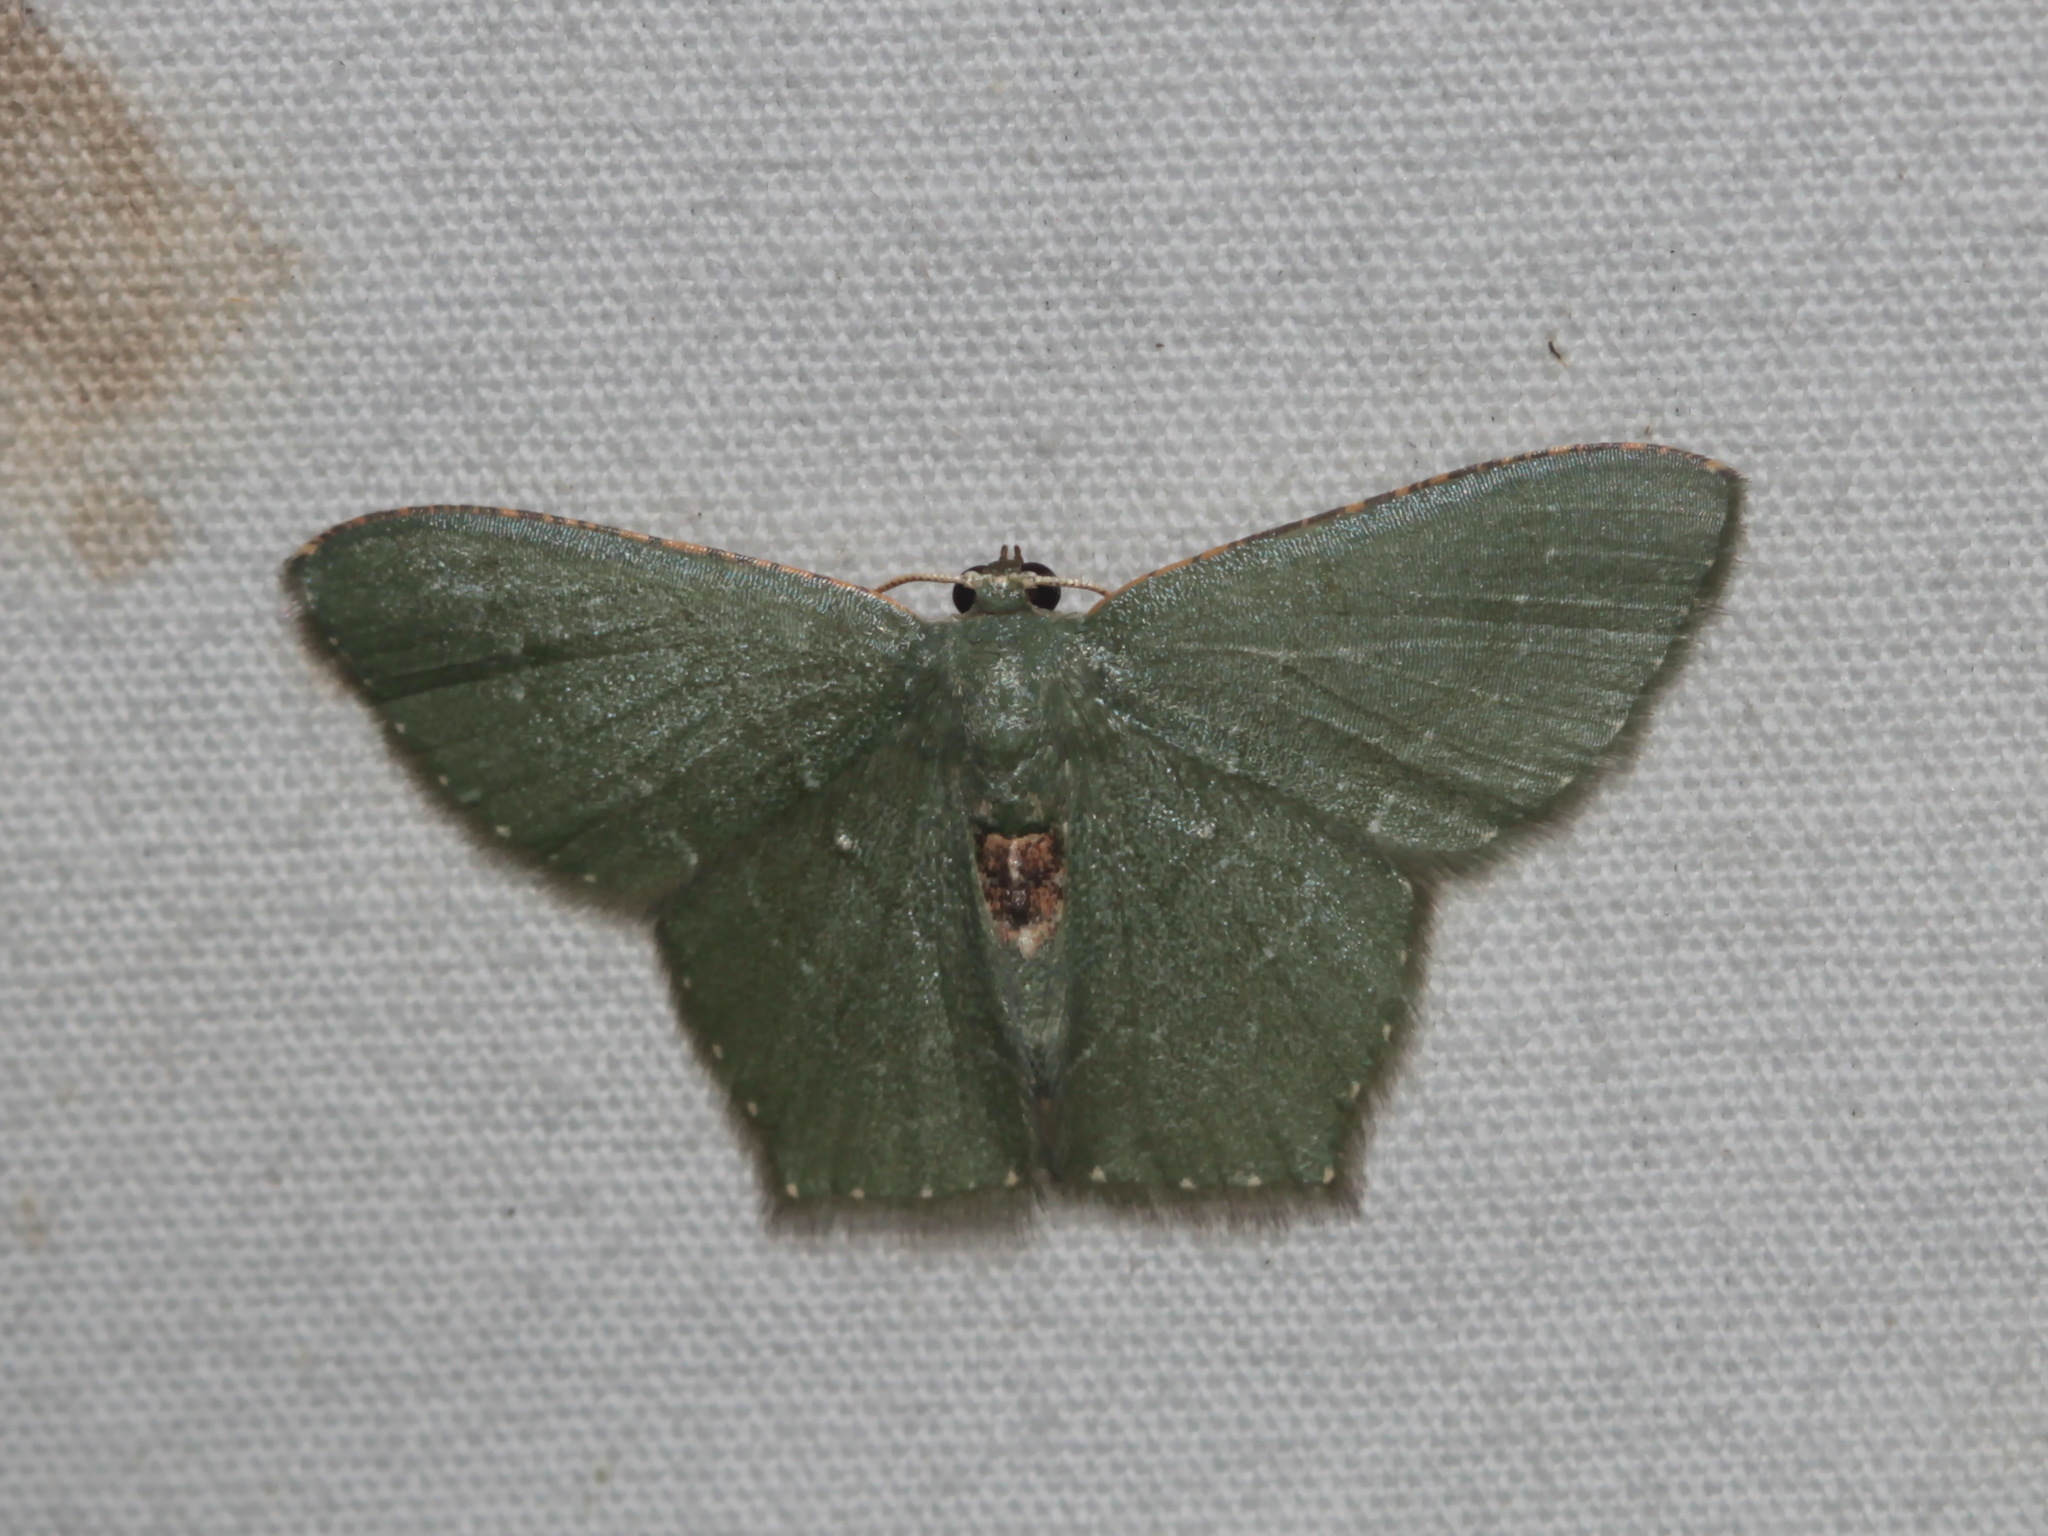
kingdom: Animalia
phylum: Arthropoda
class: Insecta
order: Lepidoptera
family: Geometridae
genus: Hemithea
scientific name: Hemithea marina
